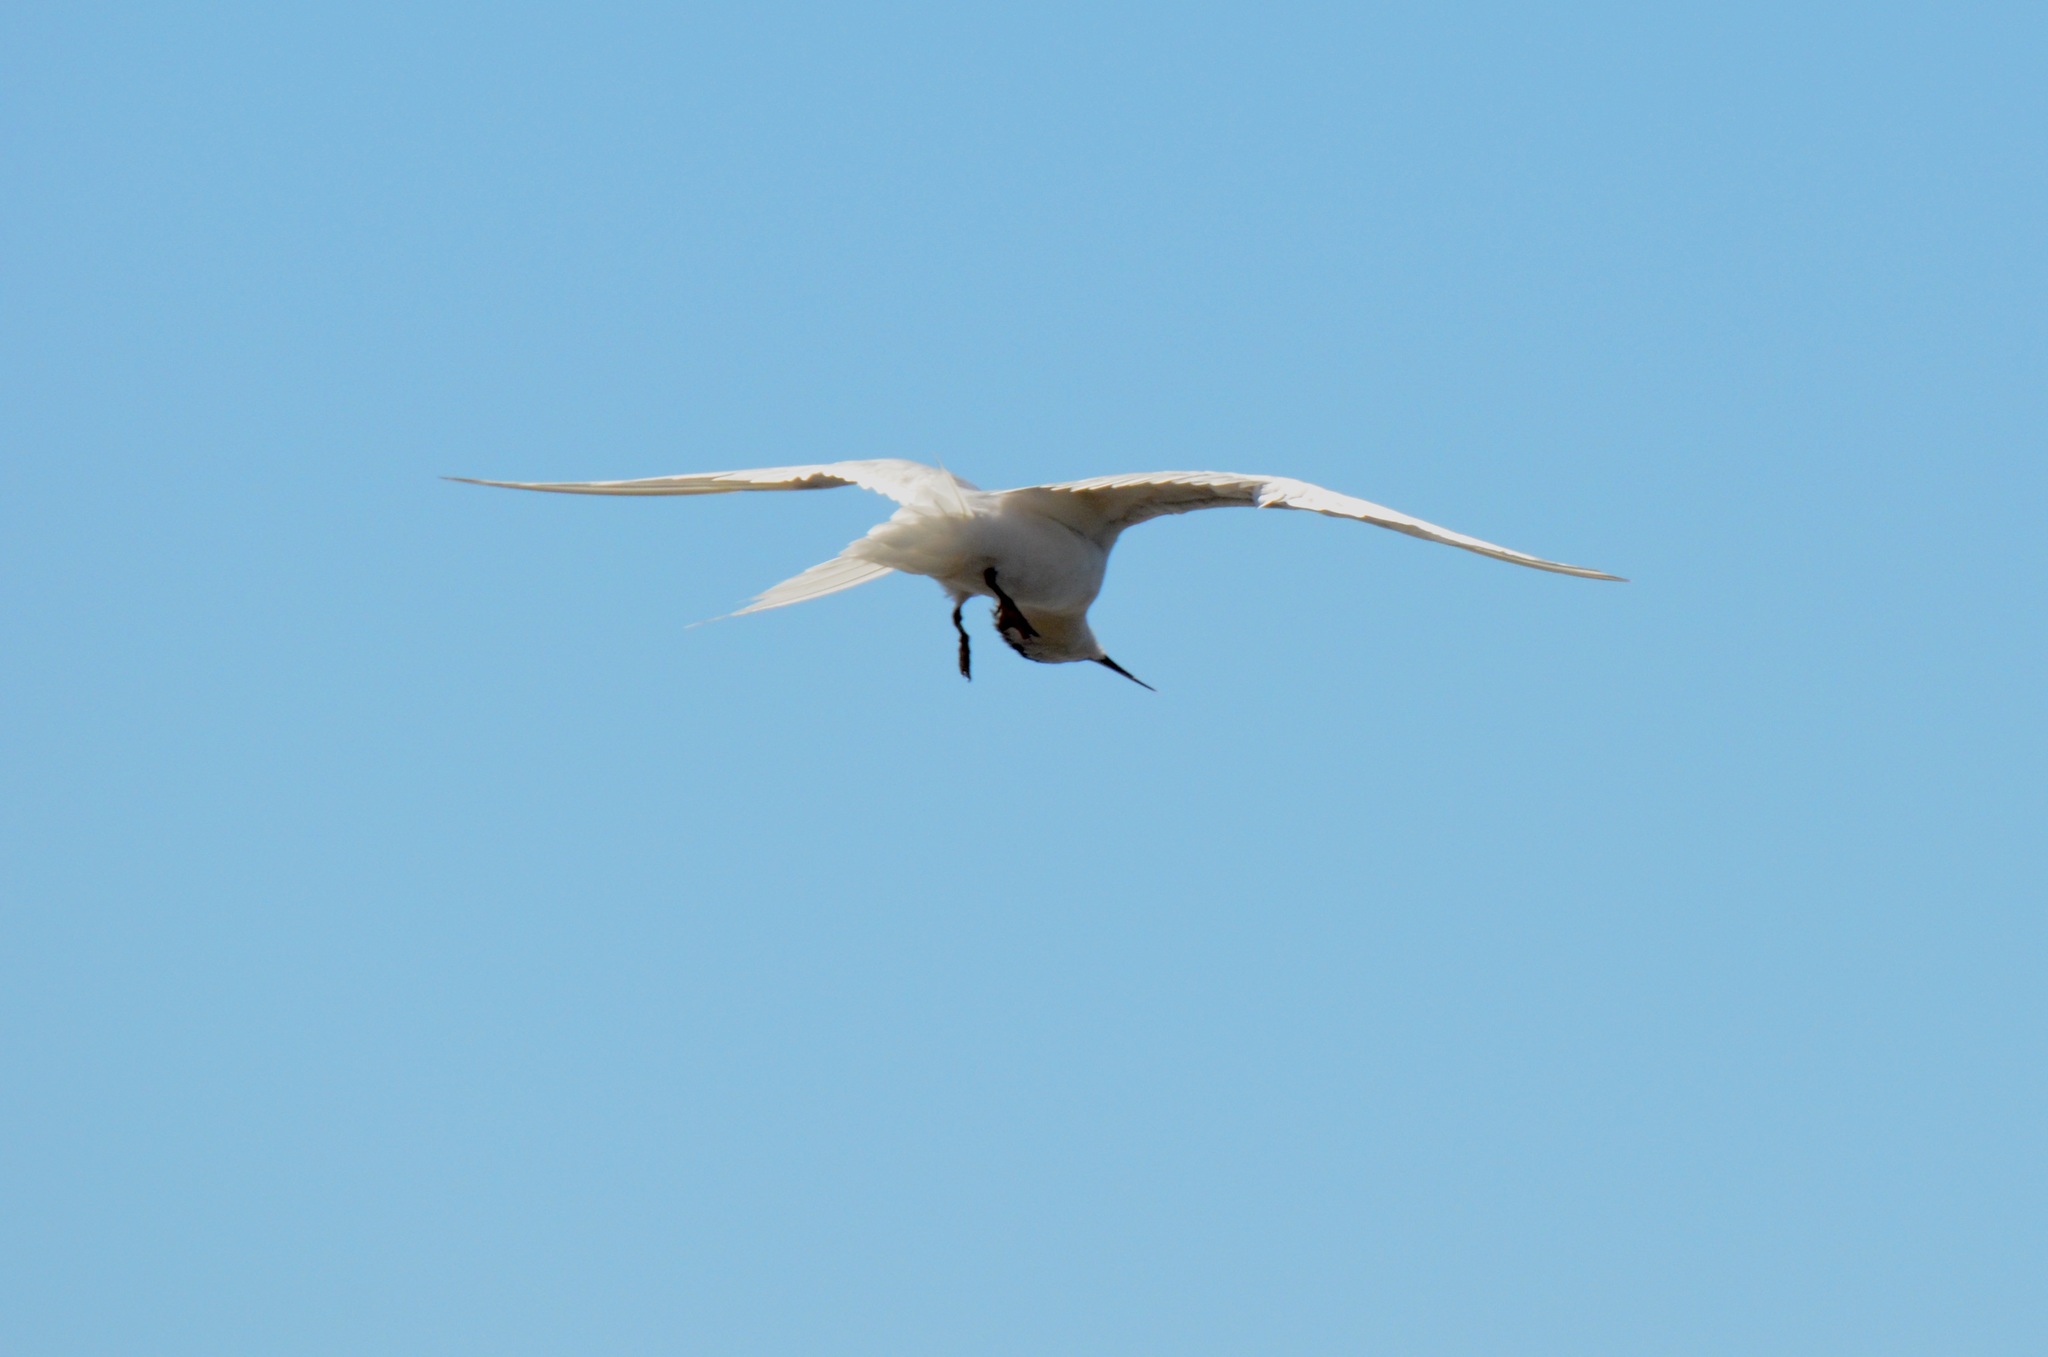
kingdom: Animalia
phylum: Chordata
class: Aves
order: Charadriiformes
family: Laridae
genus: Sterna
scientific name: Sterna striata
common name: White-fronted tern
